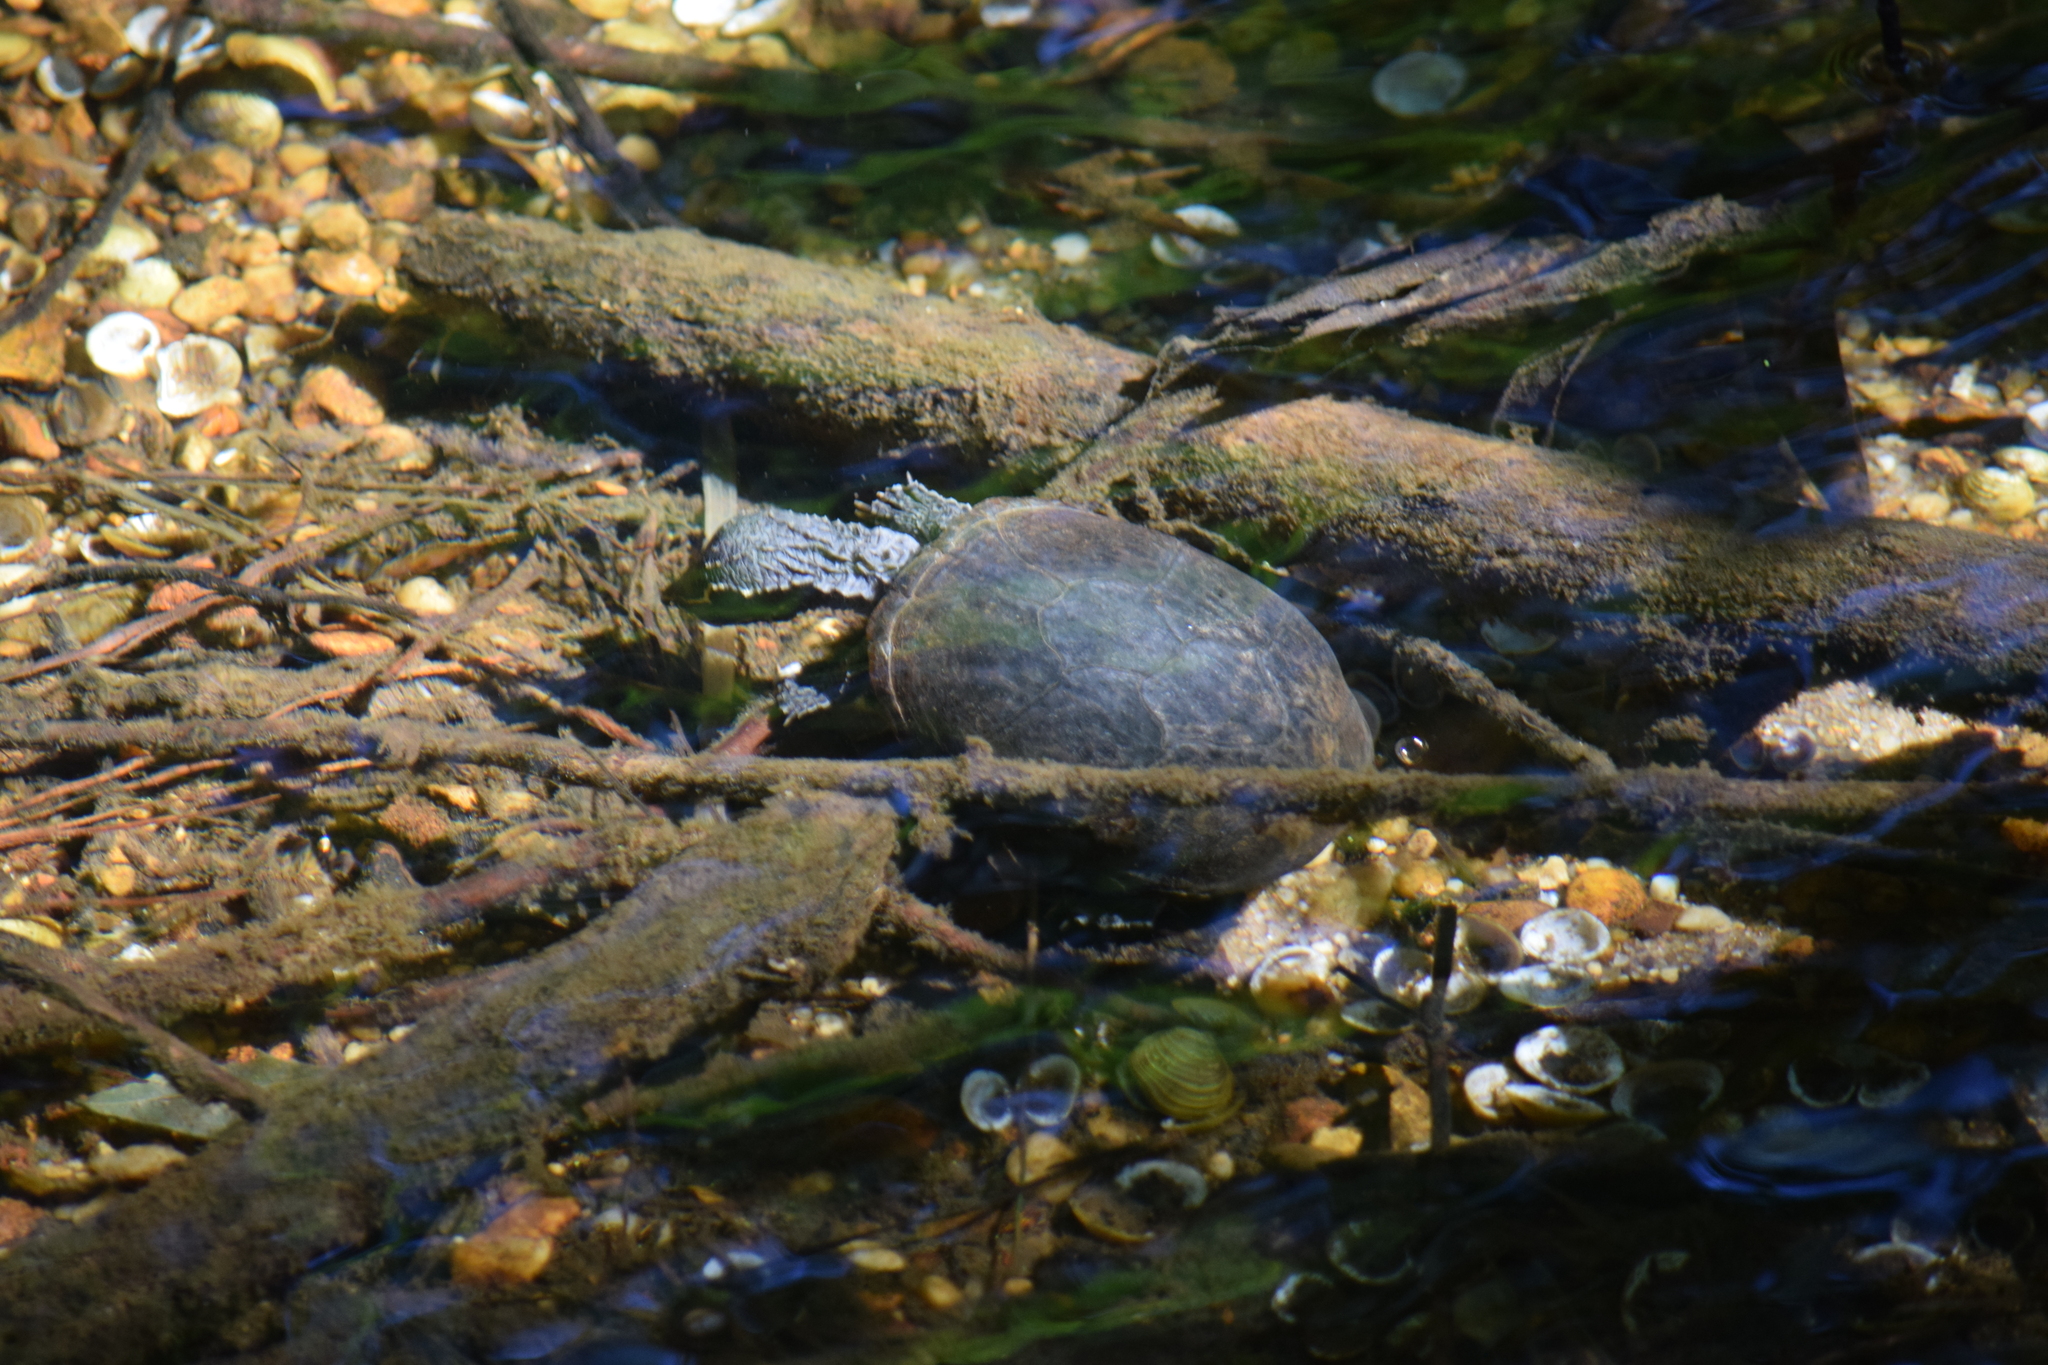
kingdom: Animalia
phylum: Chordata
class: Testudines
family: Kinosternidae
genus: Sternotherus
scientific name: Sternotherus odoratus
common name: Common musk turtle
